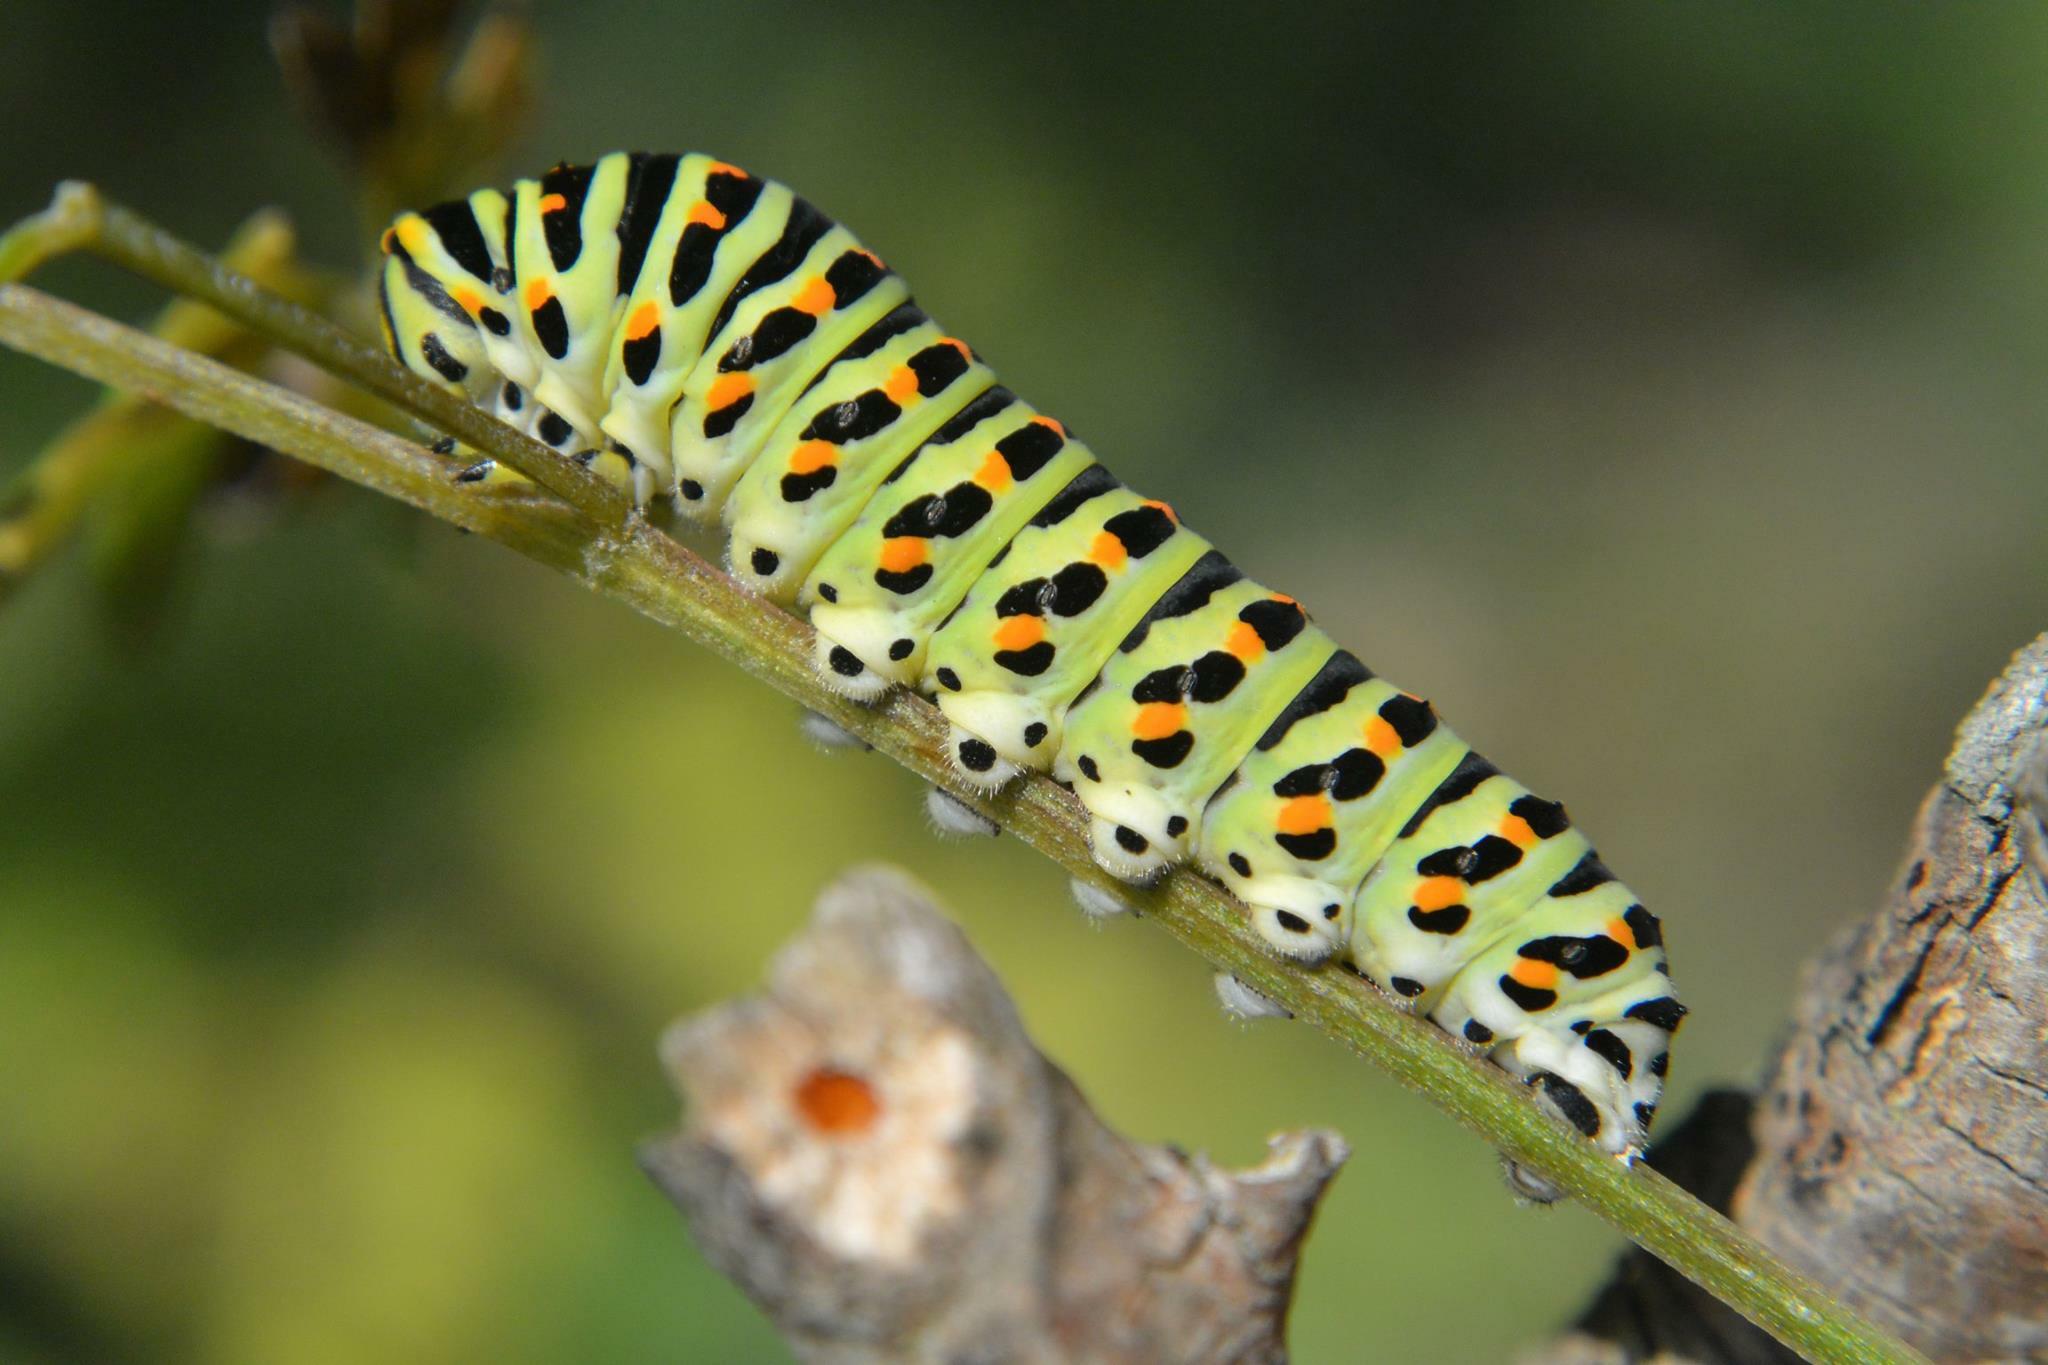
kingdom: Animalia
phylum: Arthropoda
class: Insecta
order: Lepidoptera
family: Papilionidae
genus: Papilio
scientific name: Papilio machaon
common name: Swallowtail
